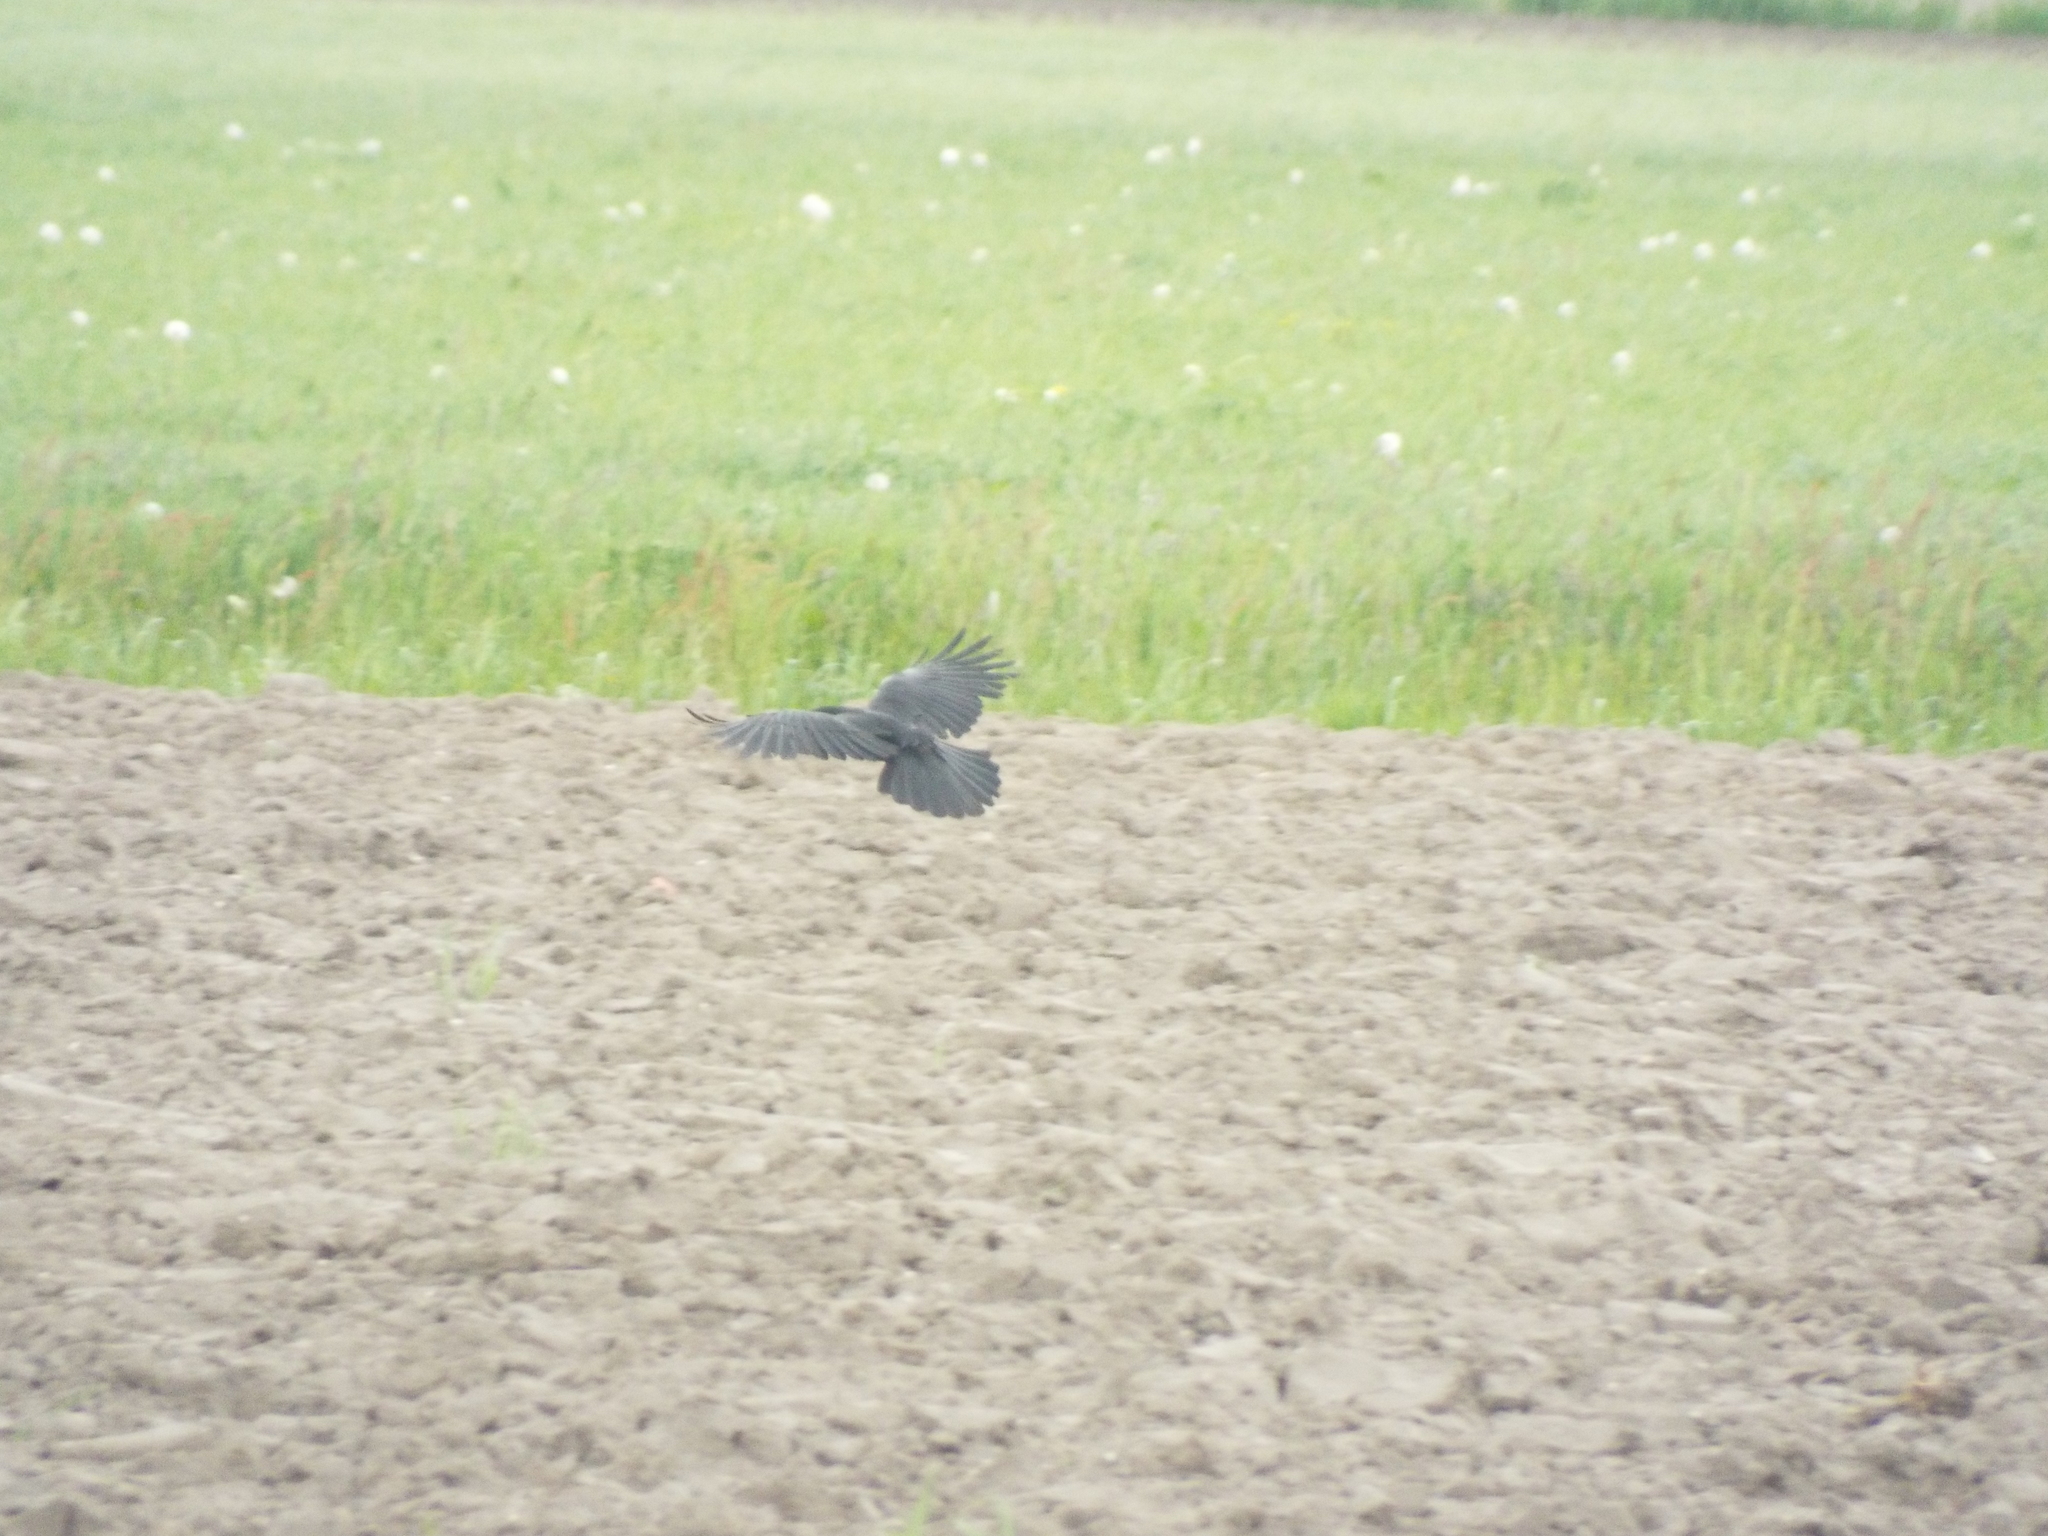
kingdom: Animalia
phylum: Chordata
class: Aves
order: Passeriformes
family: Corvidae
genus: Corvus
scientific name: Corvus corone
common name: Carrion crow
